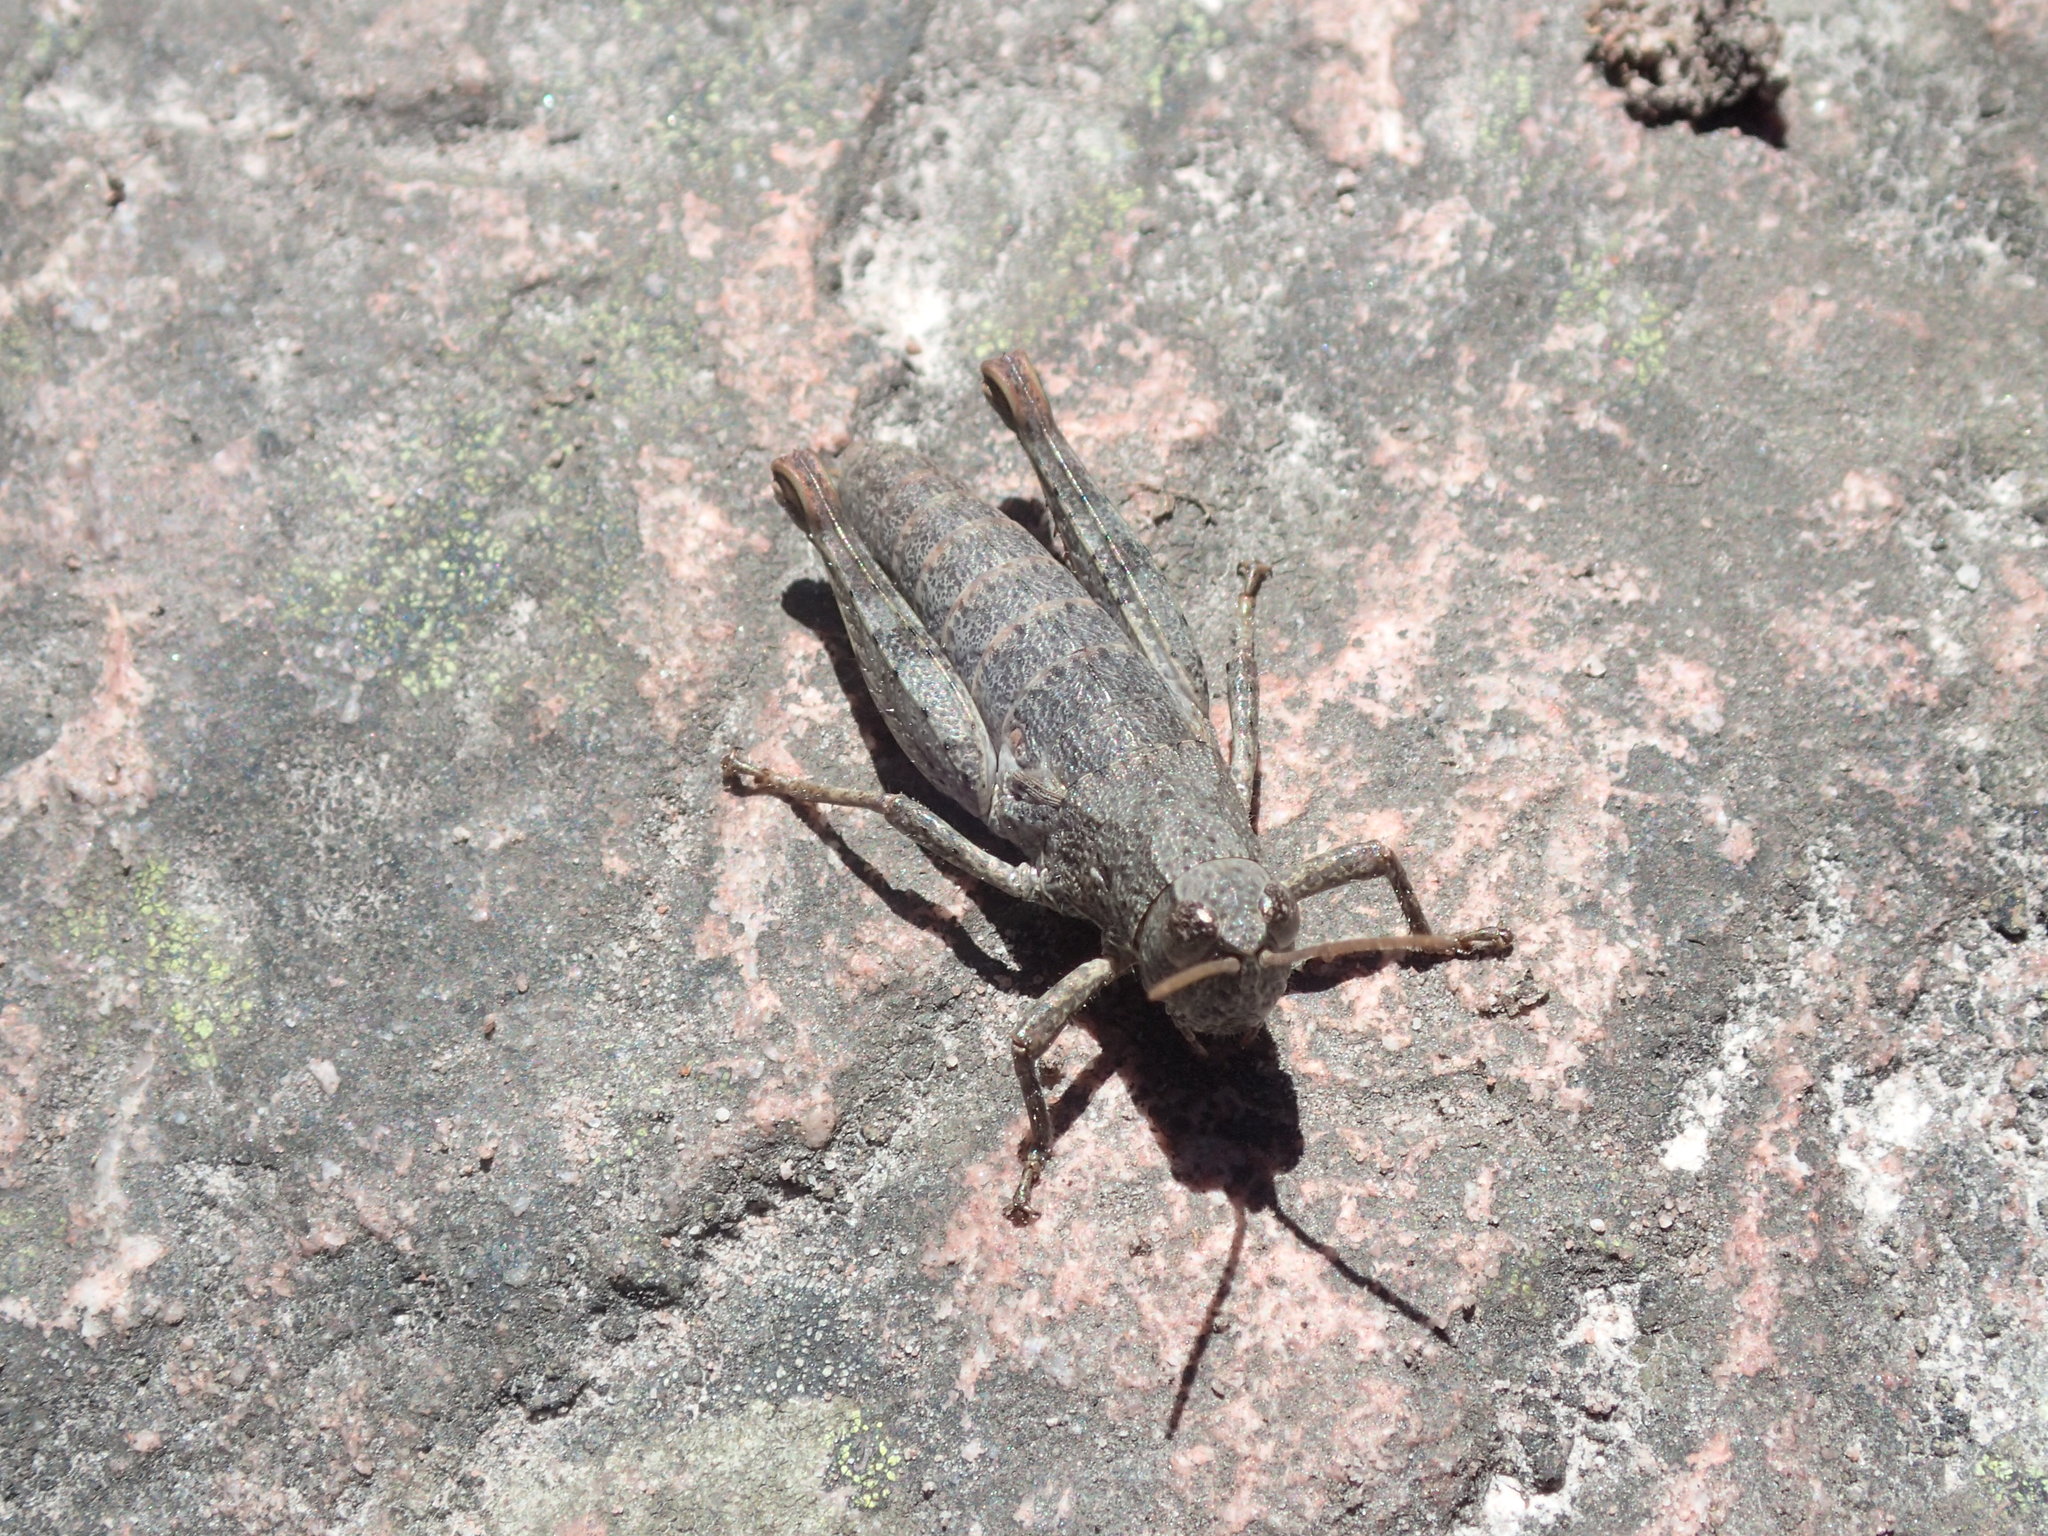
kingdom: Animalia
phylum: Arthropoda
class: Insecta
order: Orthoptera
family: Acrididae
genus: Tasmaniacris
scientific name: Tasmaniacris tasmaniensis
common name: Tasmanian grasshopper
